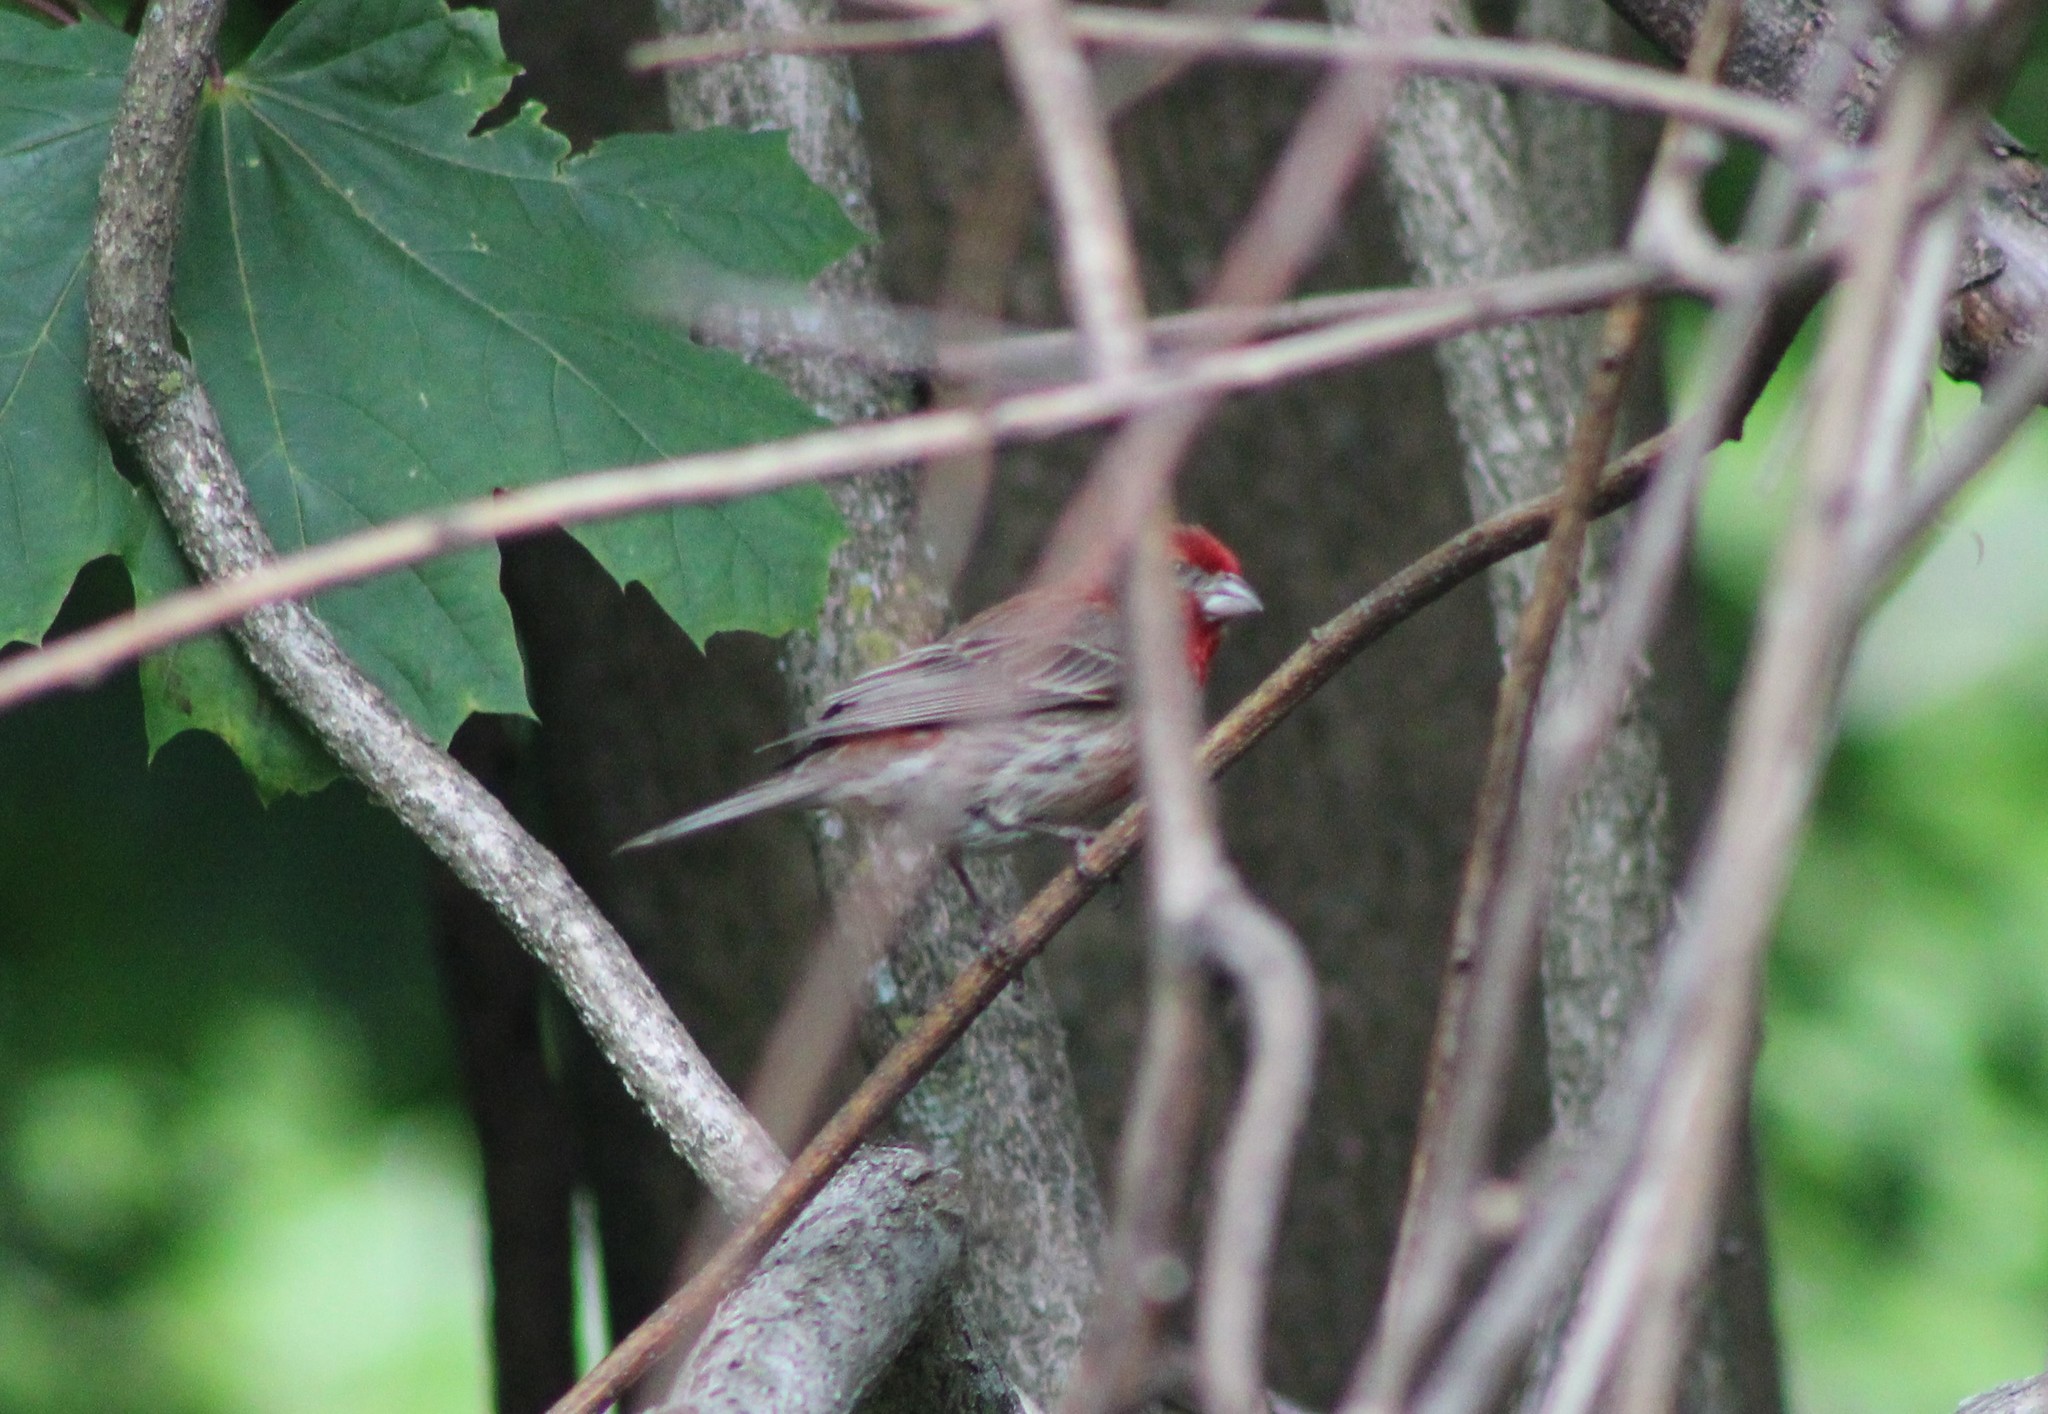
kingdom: Animalia
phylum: Chordata
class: Aves
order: Passeriformes
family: Fringillidae
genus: Haemorhous
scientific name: Haemorhous mexicanus
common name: House finch
